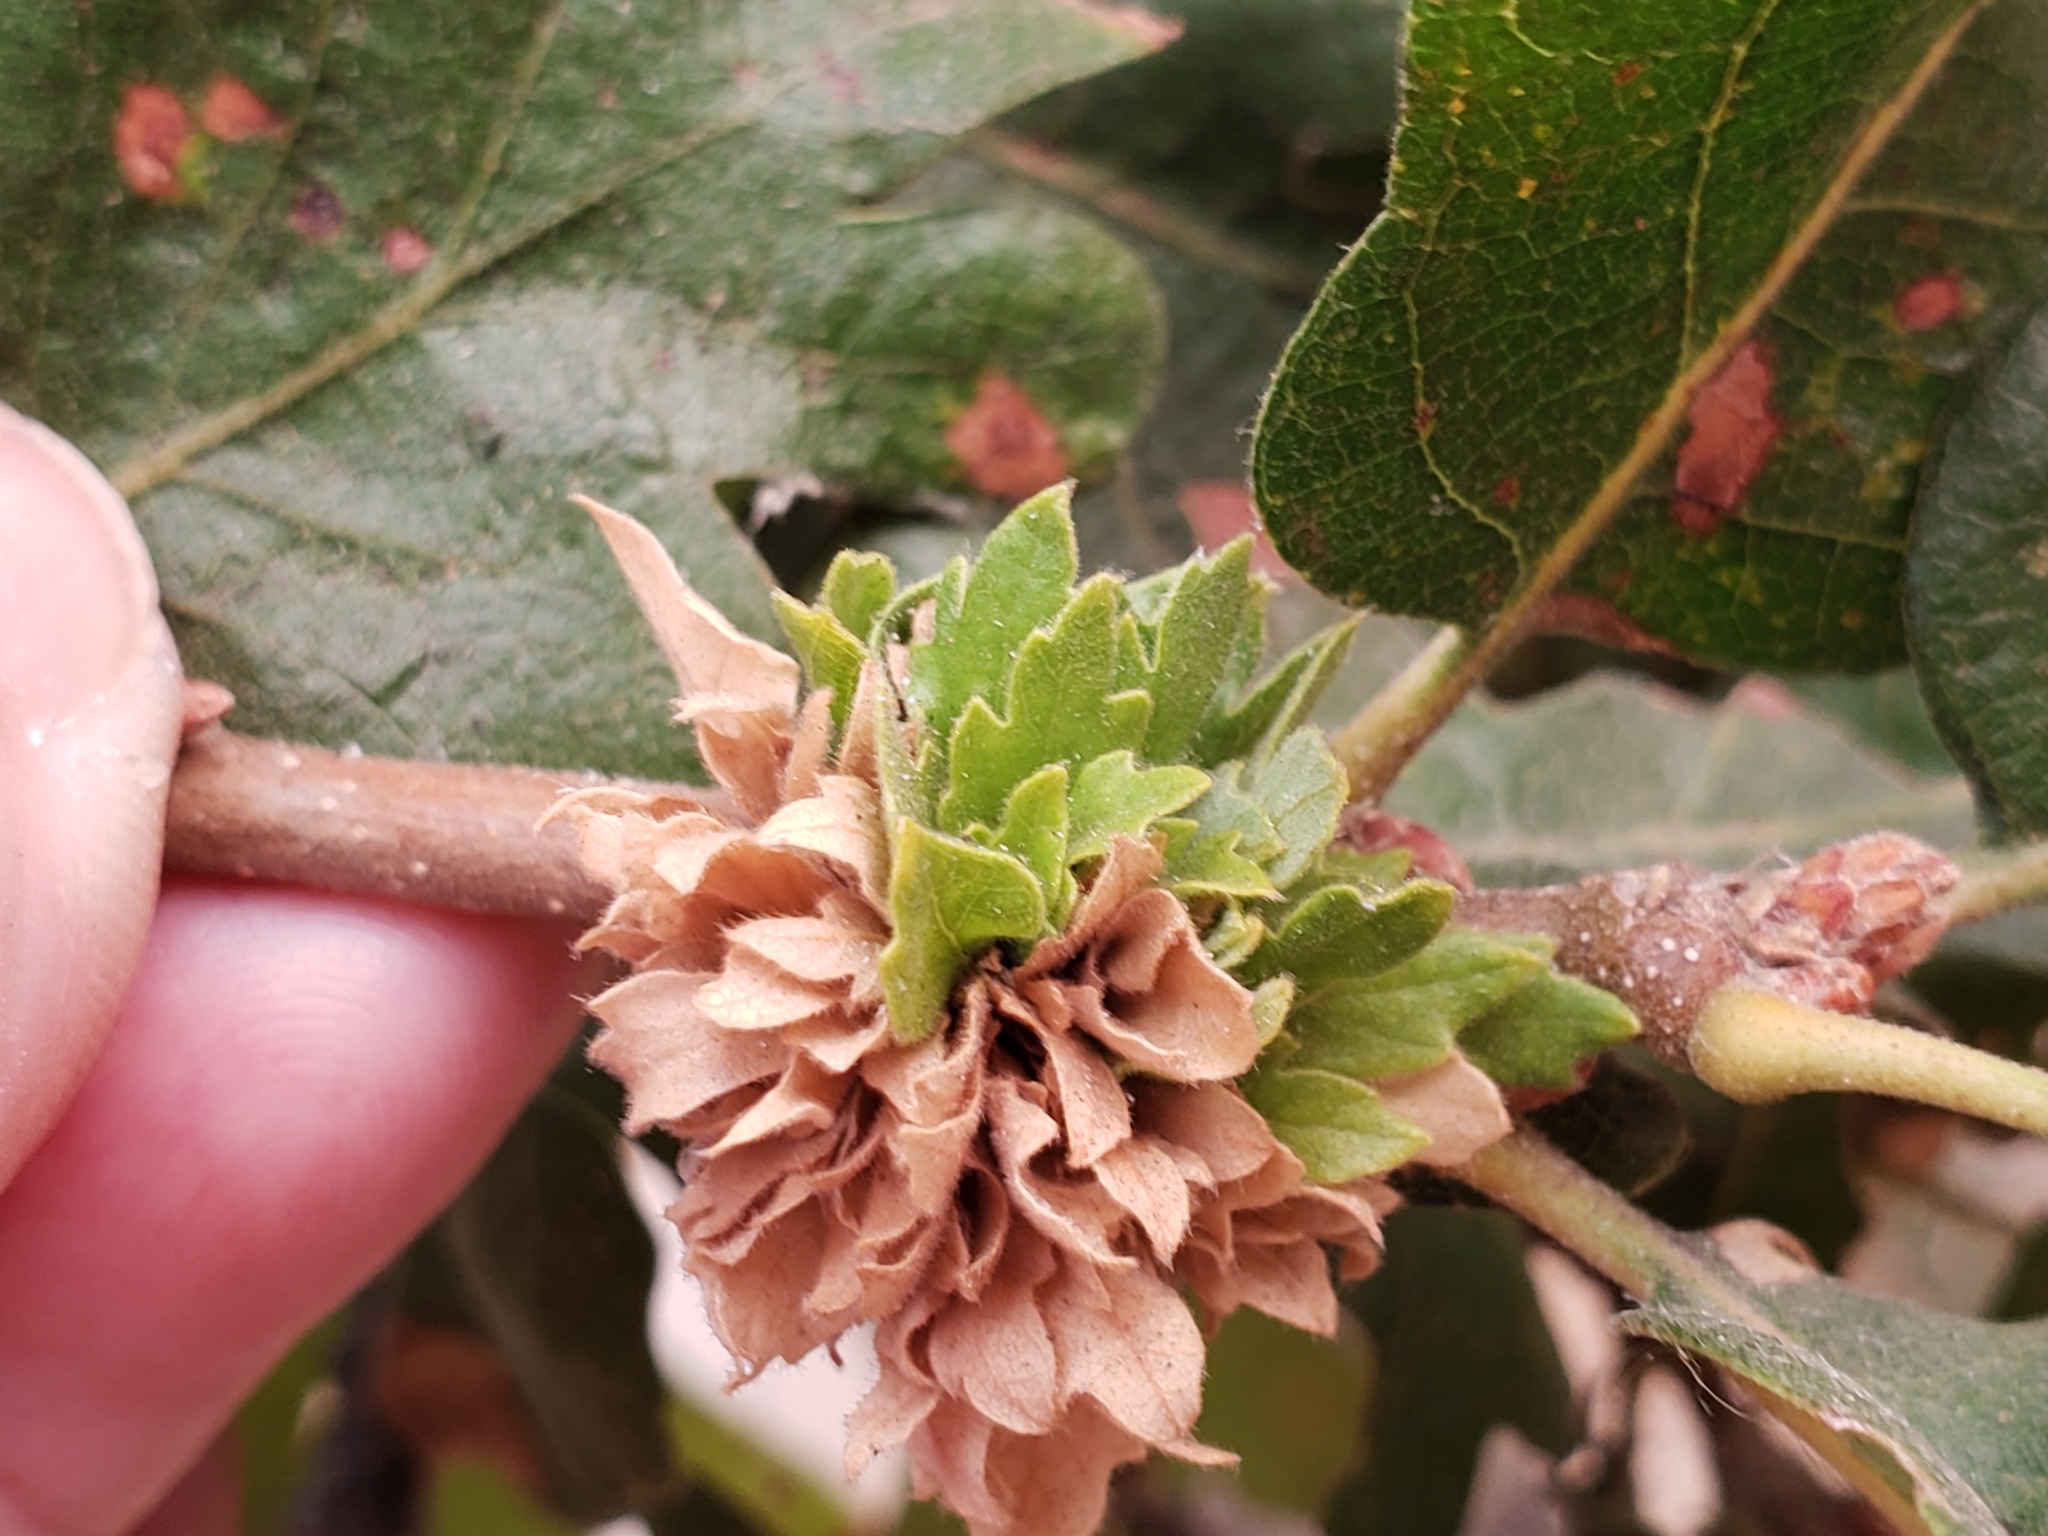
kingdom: Animalia
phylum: Arthropoda
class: Insecta
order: Hymenoptera
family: Cynipidae
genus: Andricus
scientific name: Andricus
